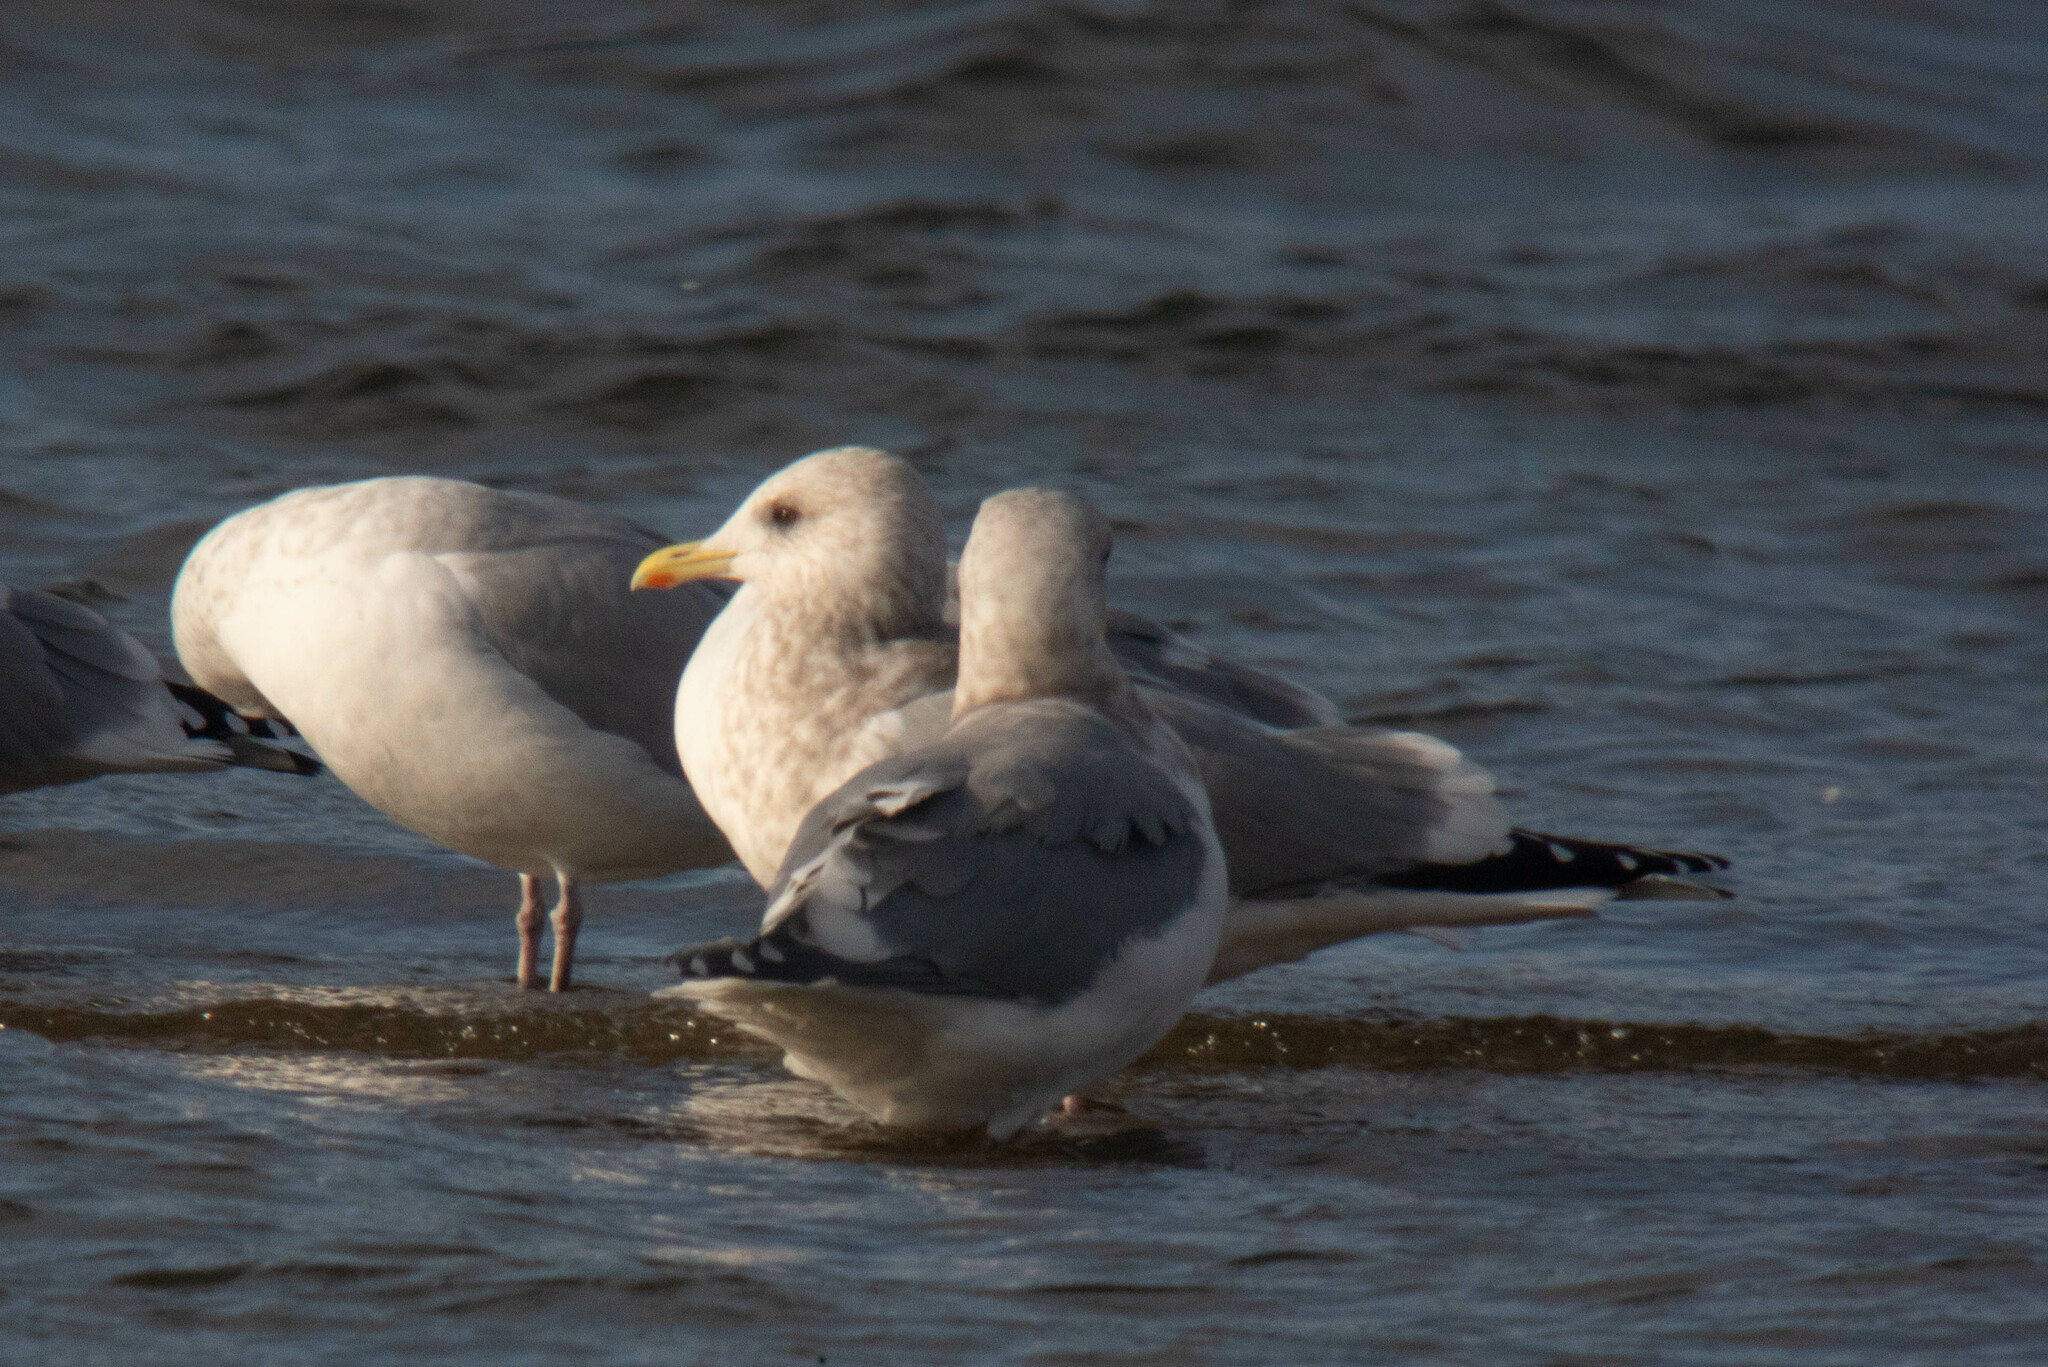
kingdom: Animalia
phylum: Chordata
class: Aves
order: Charadriiformes
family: Laridae
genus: Larus
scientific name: Larus glaucoides
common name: Iceland gull
